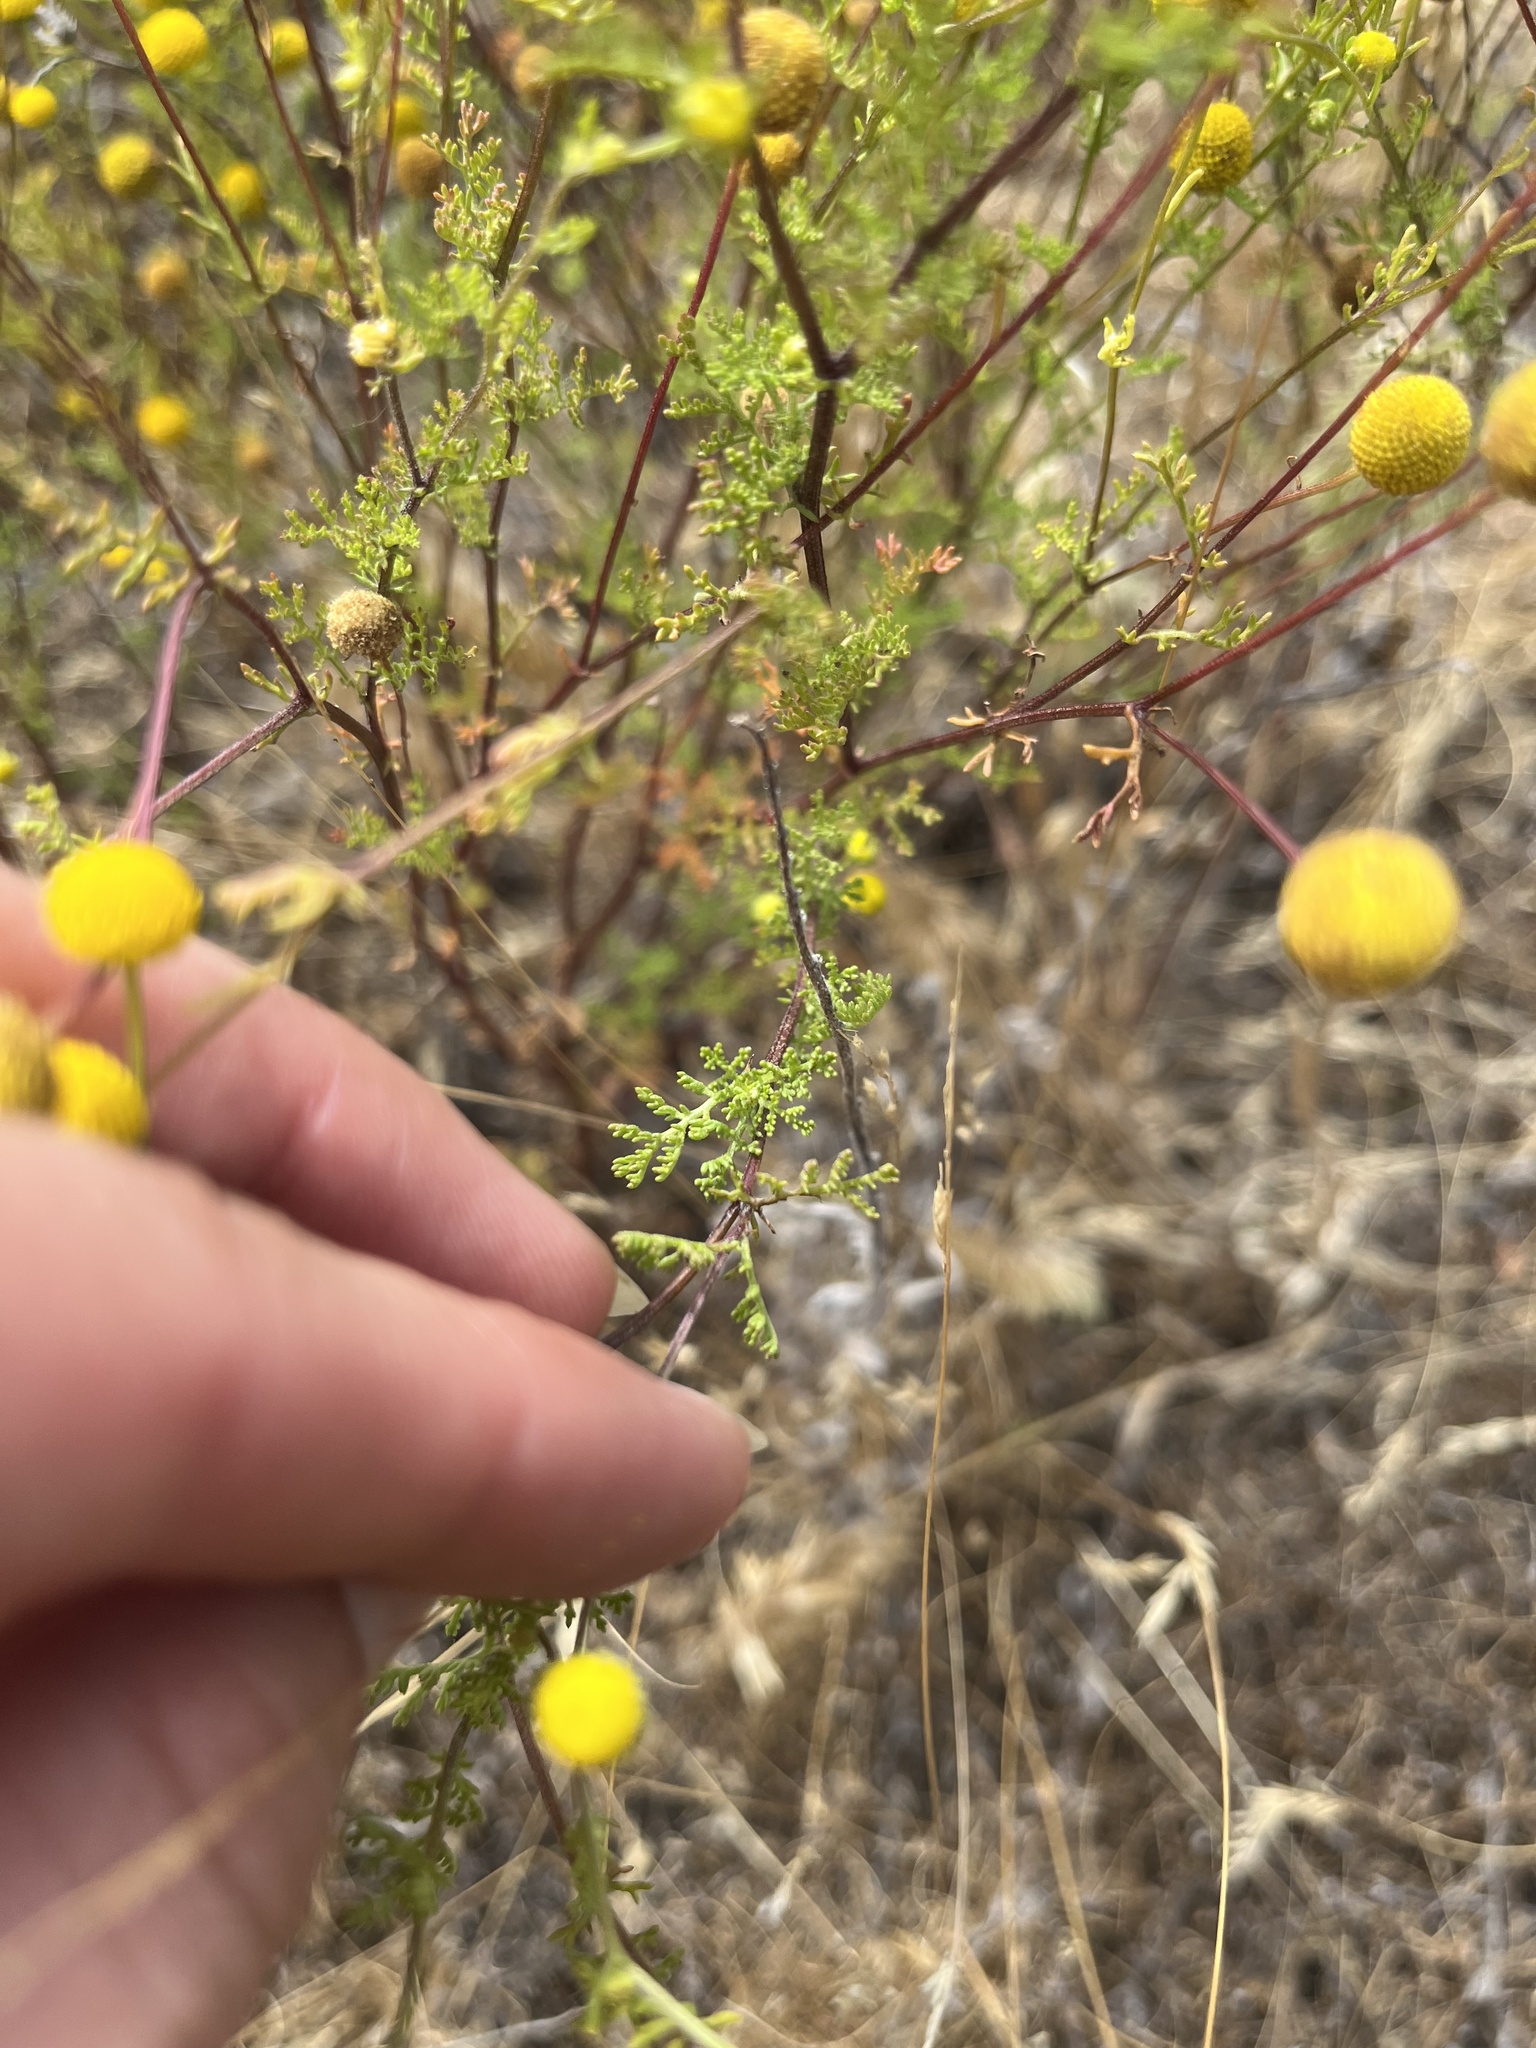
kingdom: Plantae
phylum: Tracheophyta
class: Magnoliopsida
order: Asterales
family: Asteraceae
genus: Oncosiphon
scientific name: Oncosiphon pilulifer
